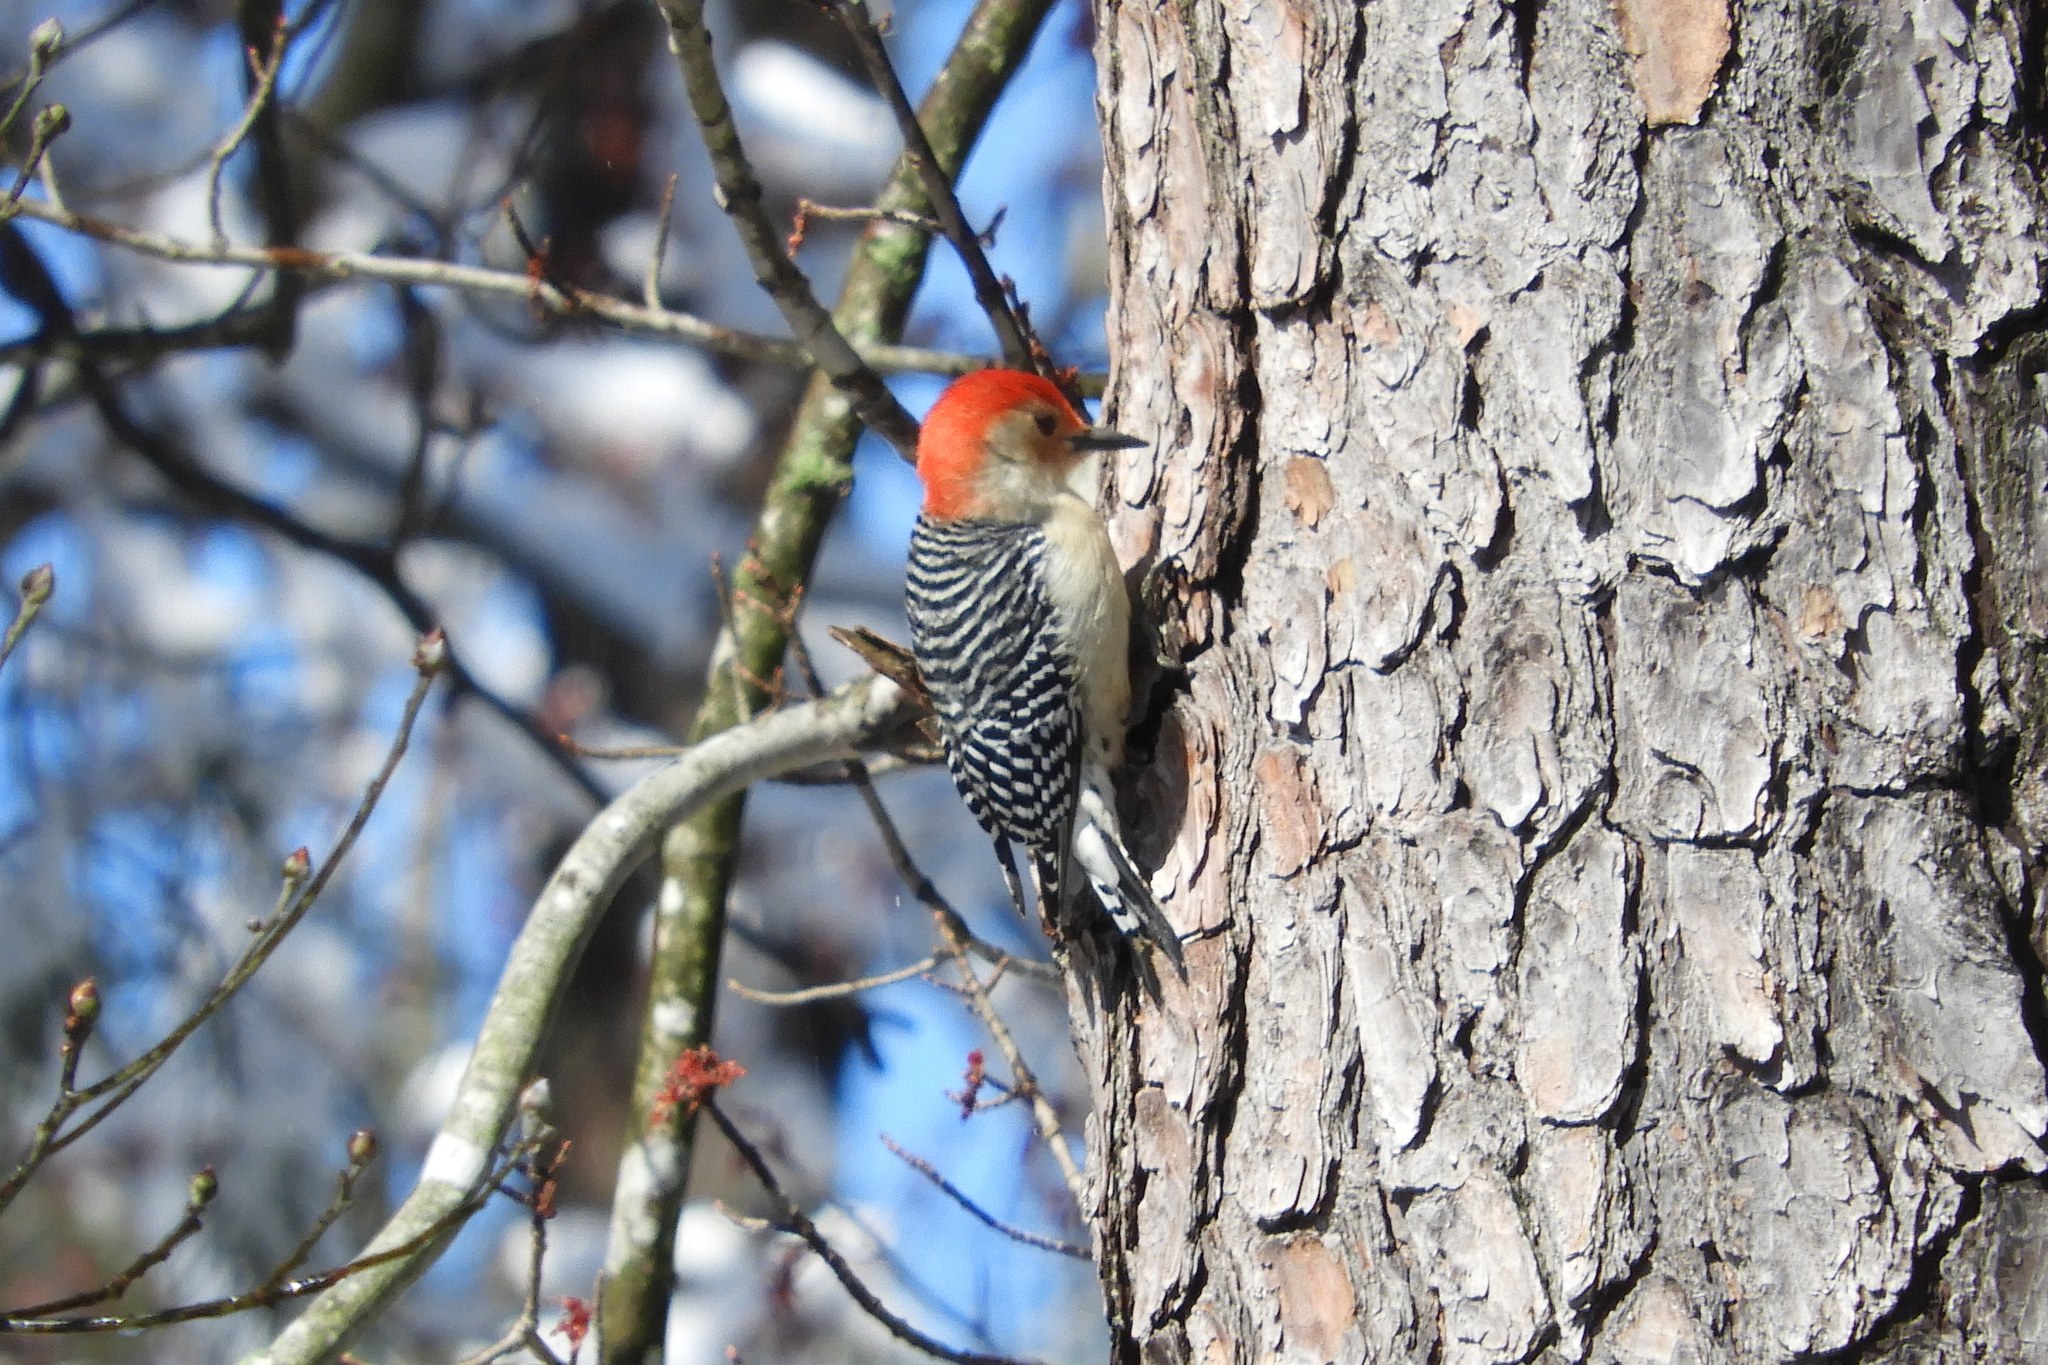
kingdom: Animalia
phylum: Chordata
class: Aves
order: Piciformes
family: Picidae
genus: Melanerpes
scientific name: Melanerpes carolinus
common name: Red-bellied woodpecker
